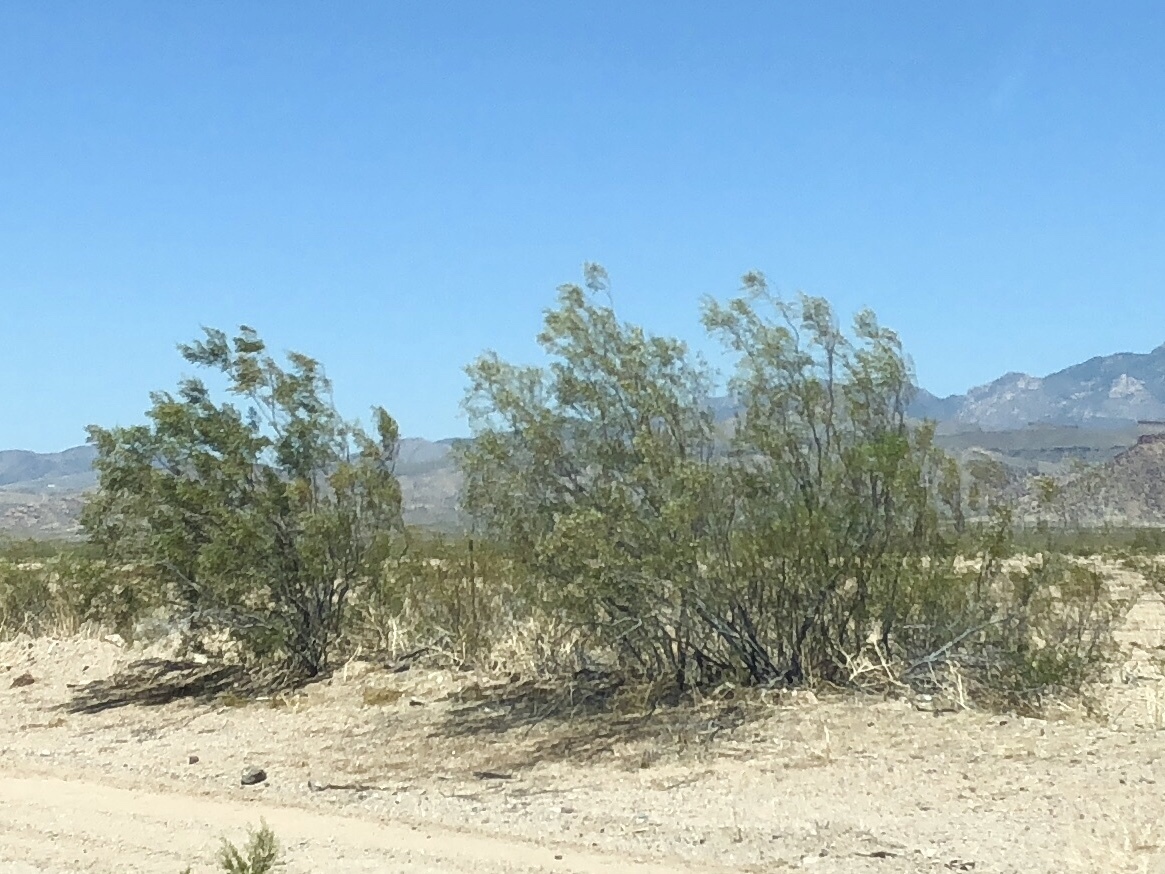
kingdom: Plantae
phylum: Tracheophyta
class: Magnoliopsida
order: Zygophyllales
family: Zygophyllaceae
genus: Larrea
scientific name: Larrea tridentata
